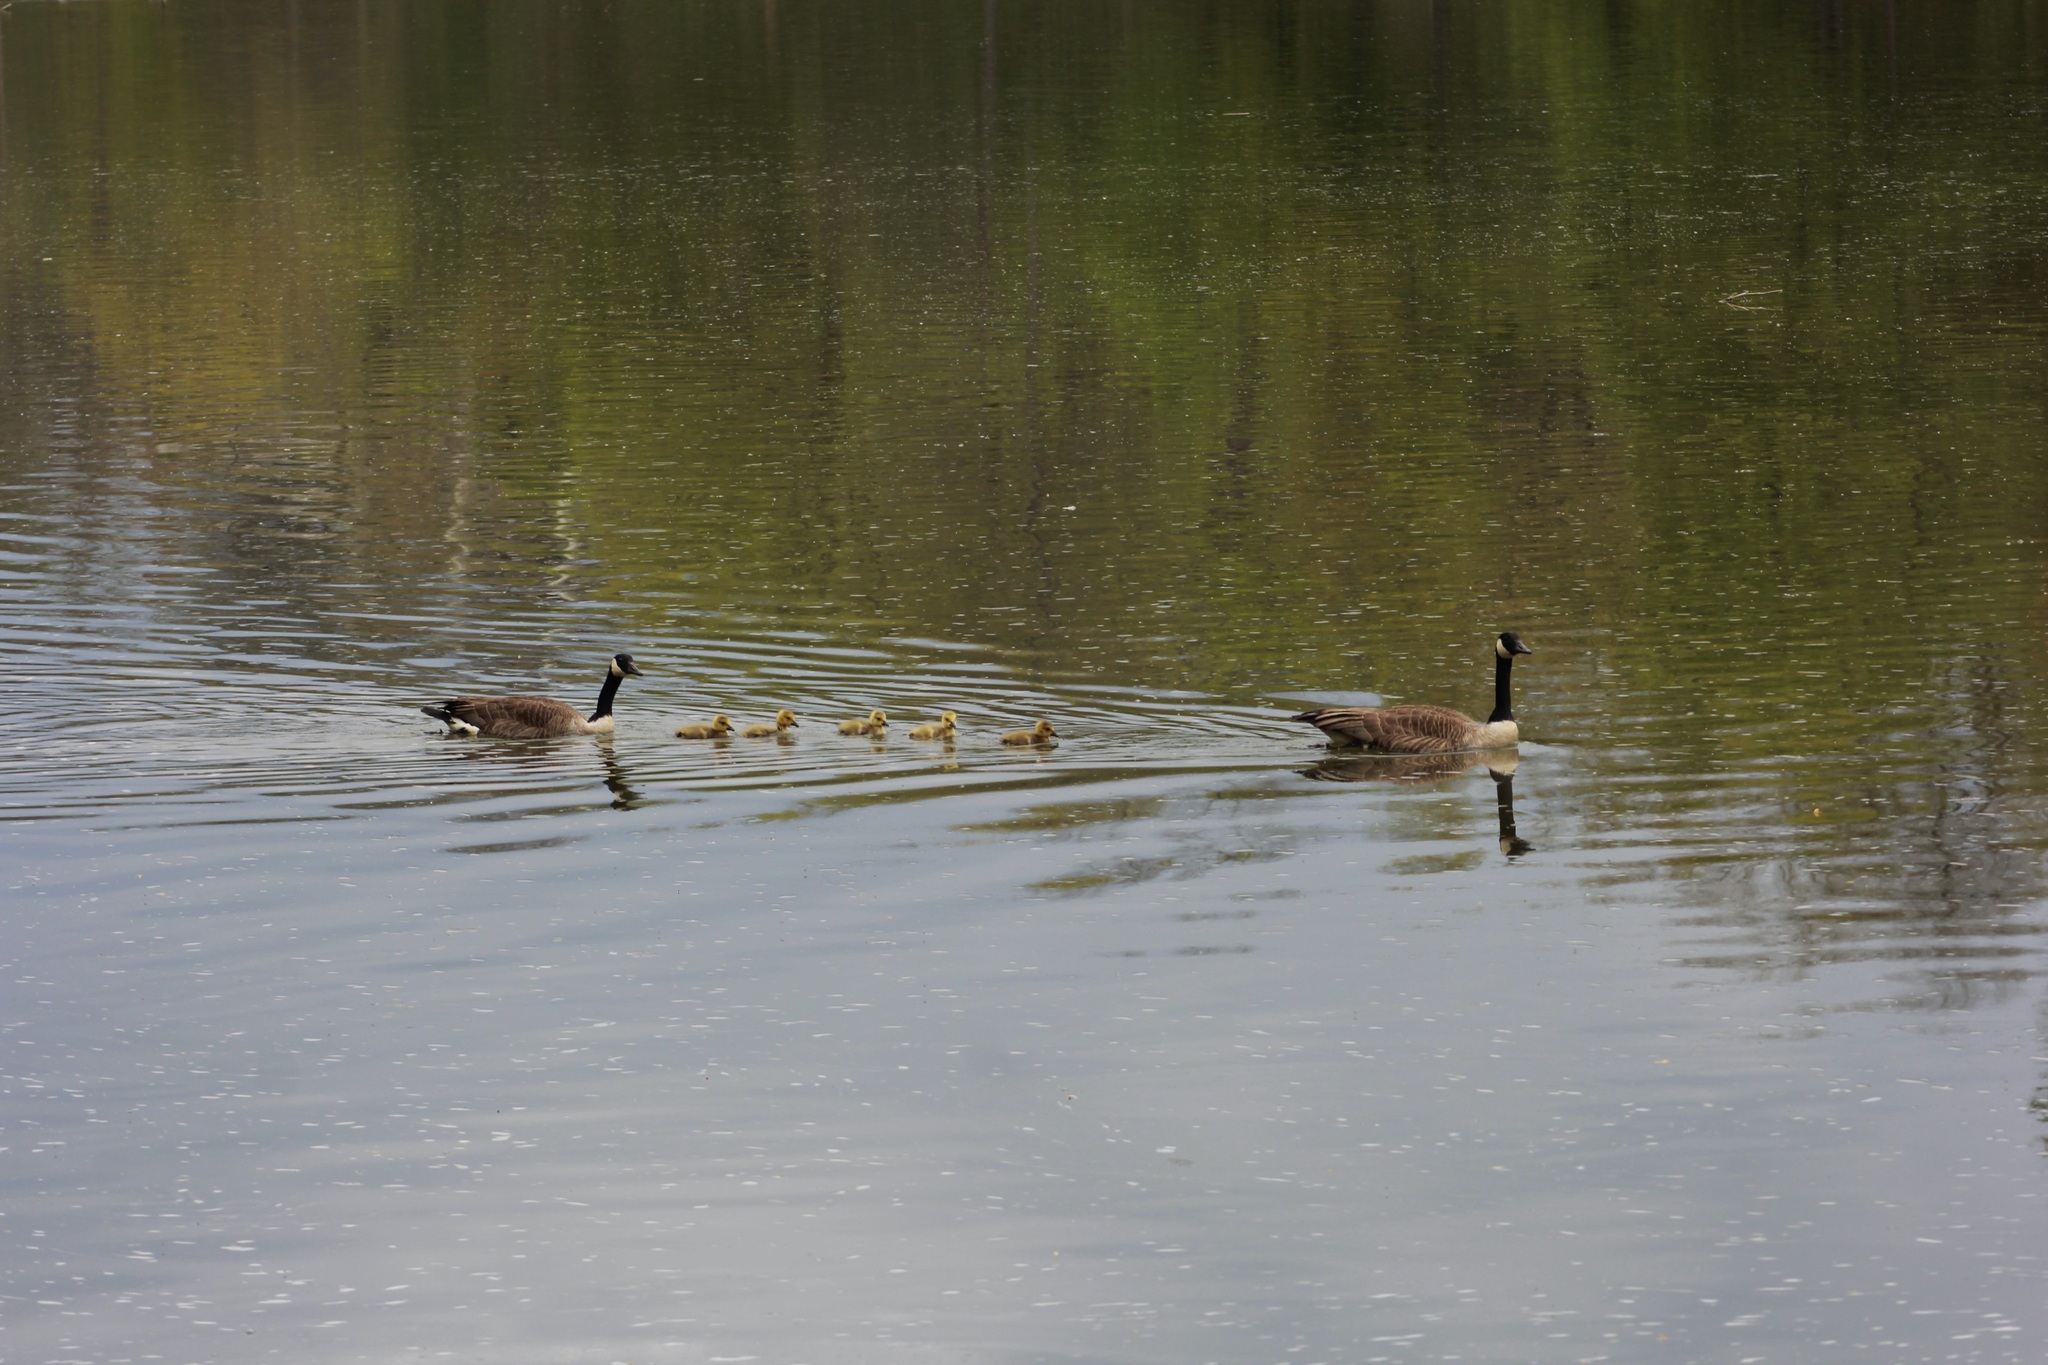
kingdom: Animalia
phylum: Chordata
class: Aves
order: Anseriformes
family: Anatidae
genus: Branta
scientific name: Branta canadensis
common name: Canada goose
